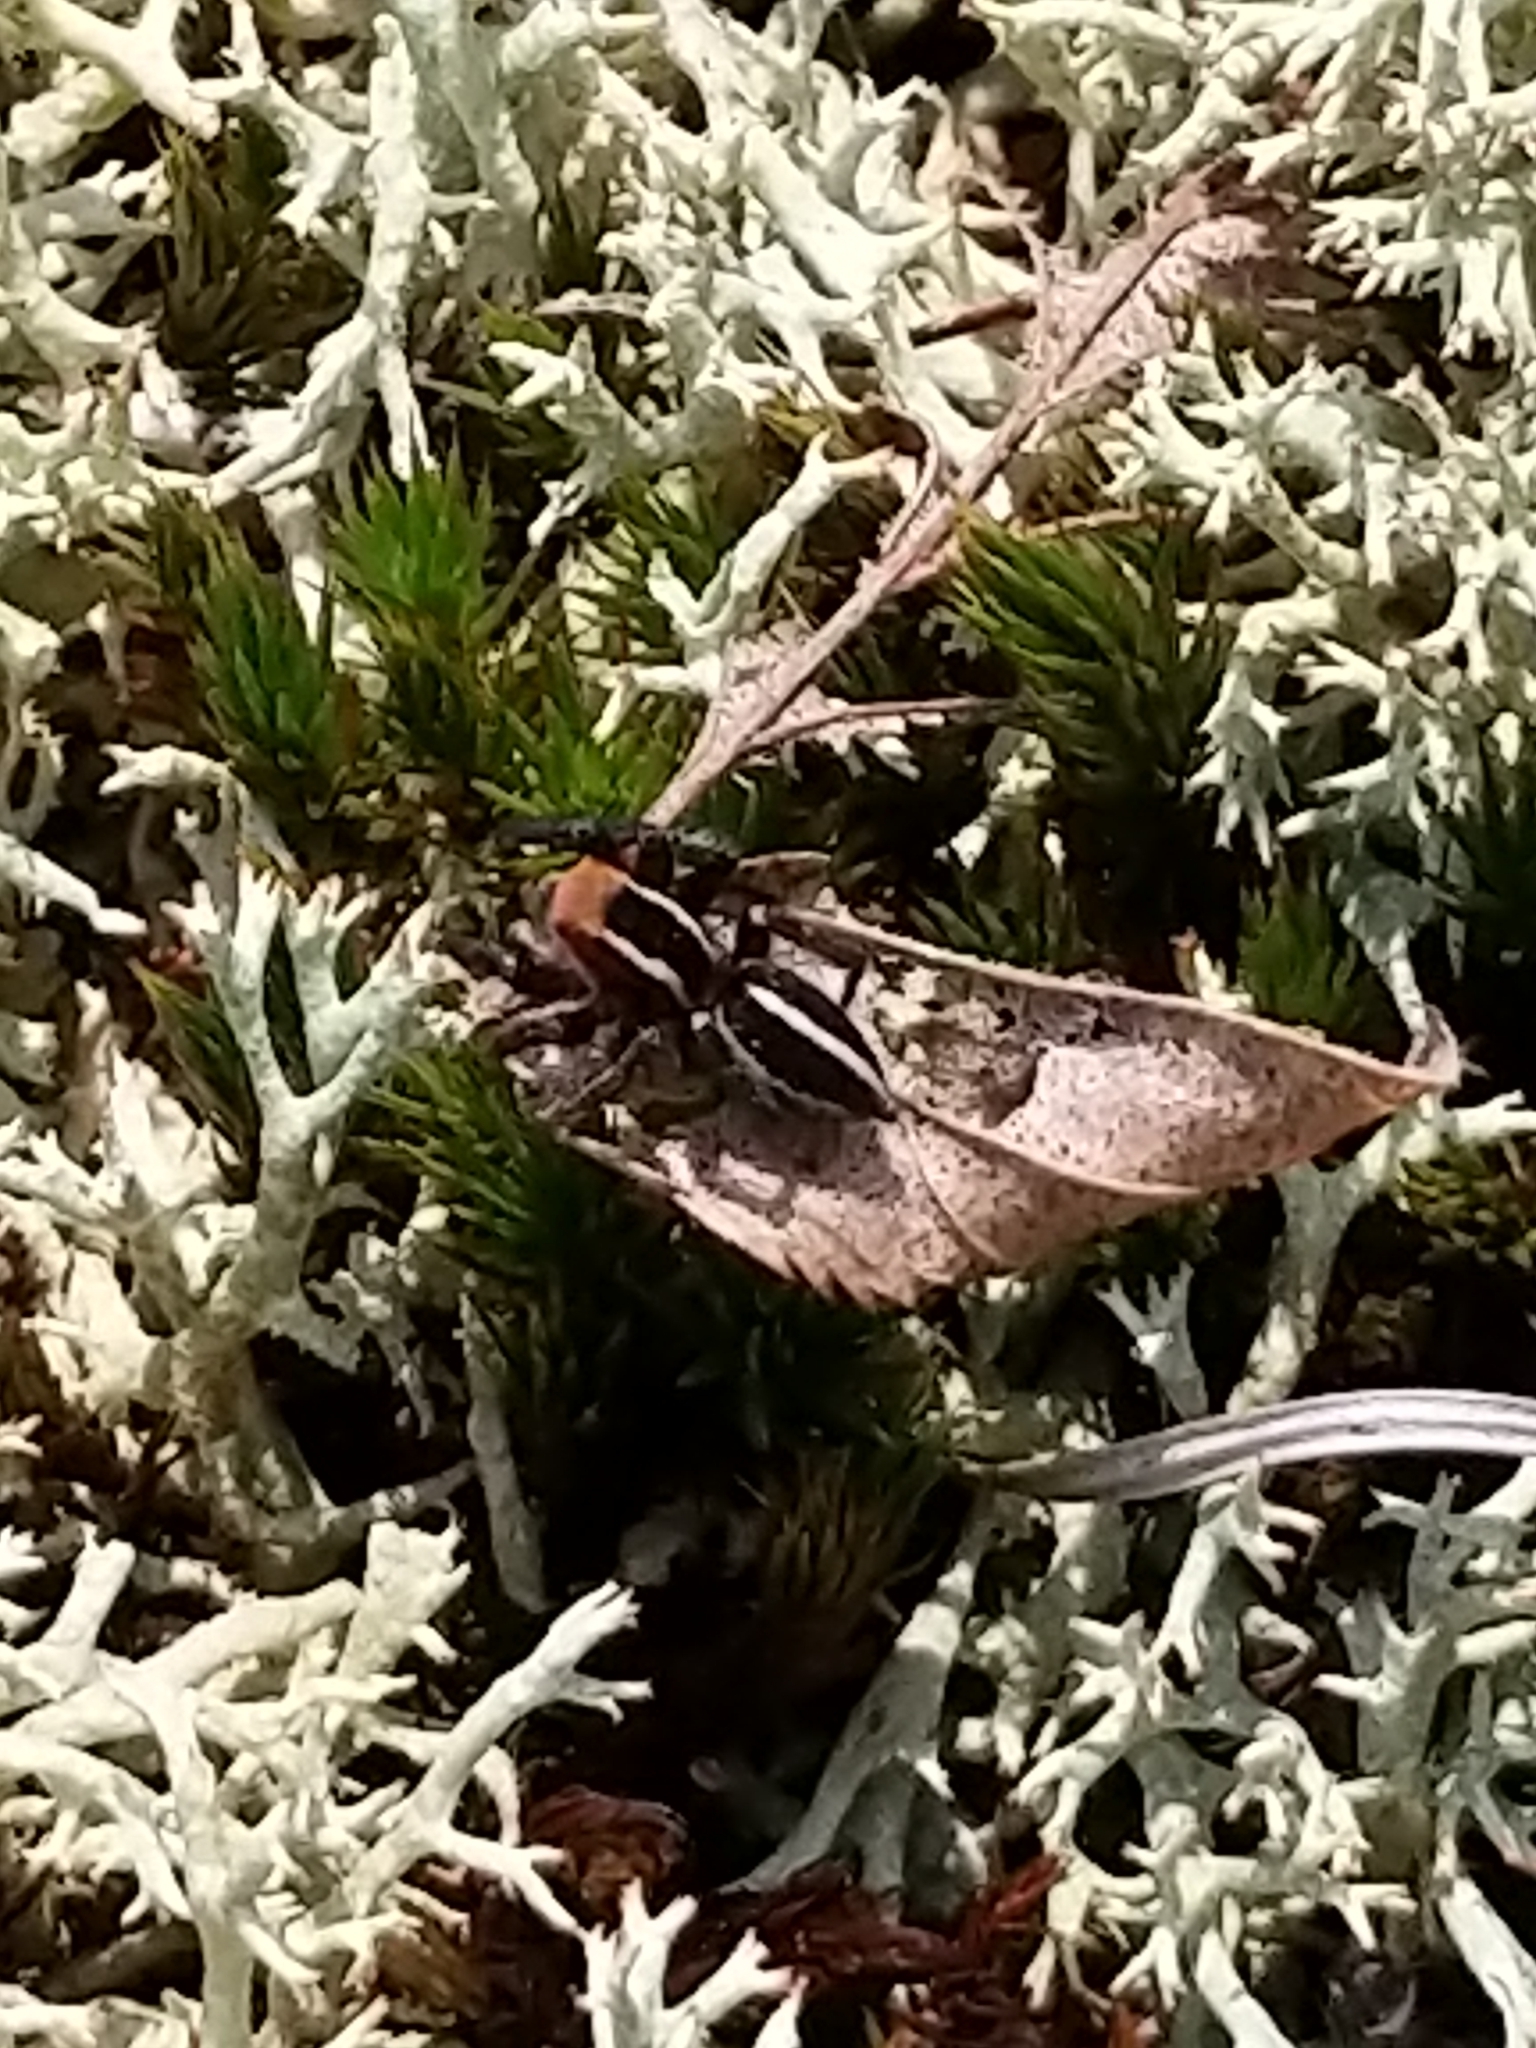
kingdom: Animalia
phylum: Arthropoda
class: Arachnida
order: Araneae
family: Salticidae
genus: Phlegra
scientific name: Phlegra hentzi
